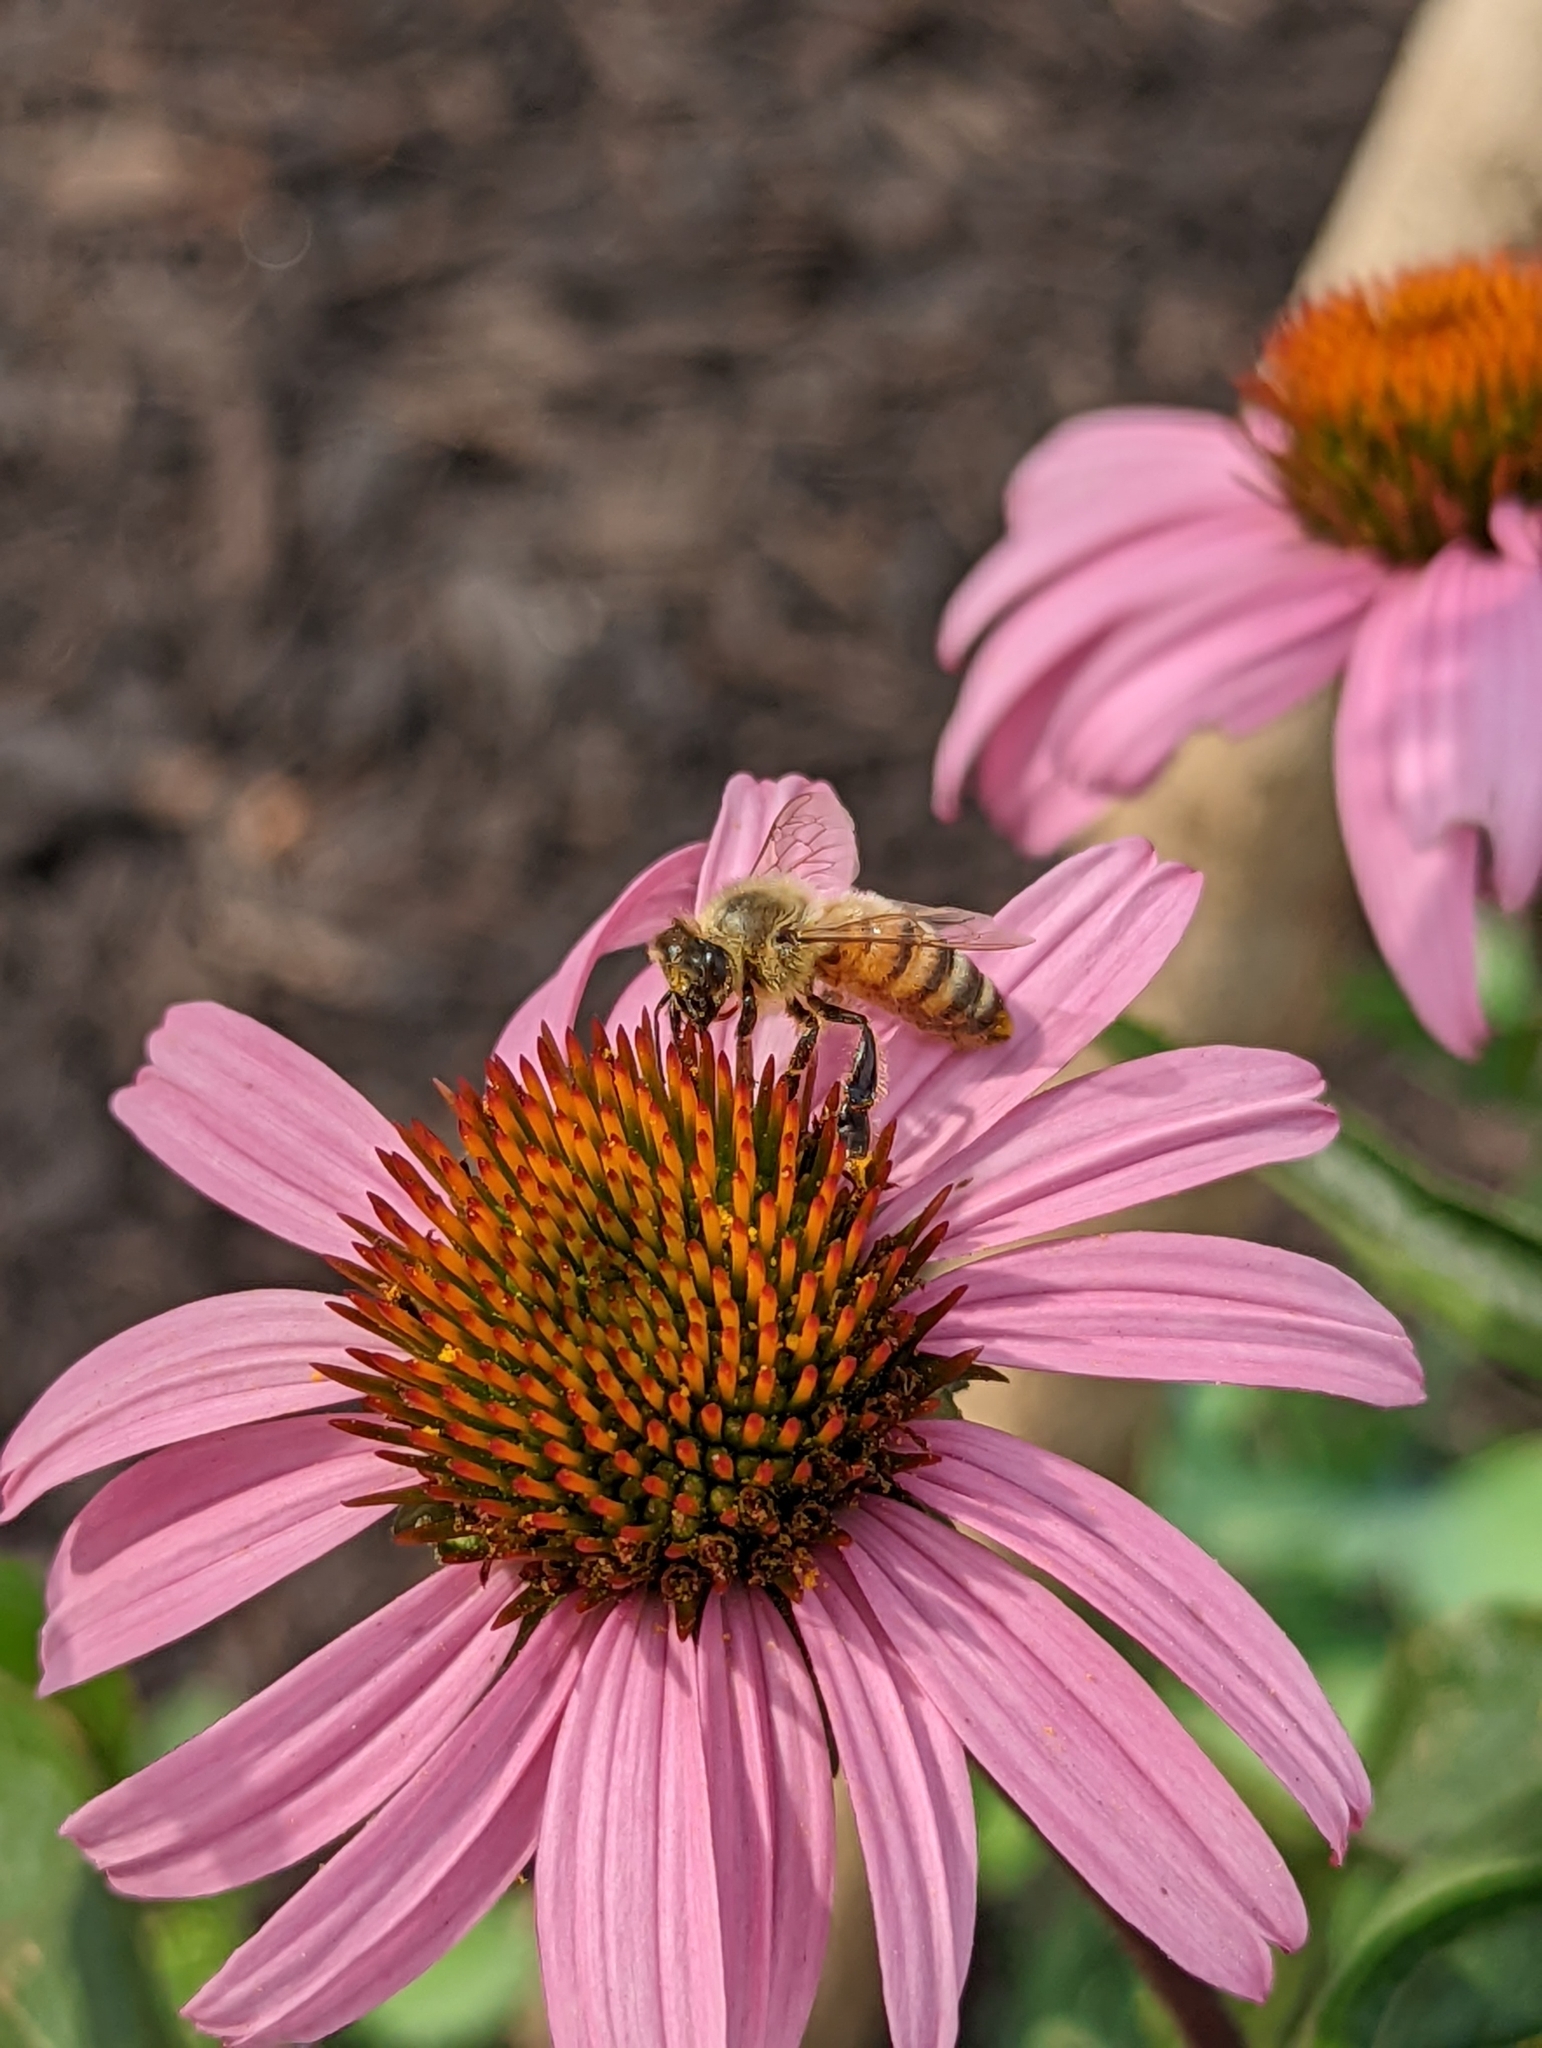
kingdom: Animalia
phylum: Arthropoda
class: Insecta
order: Hymenoptera
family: Apidae
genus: Apis
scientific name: Apis mellifera
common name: Honey bee
